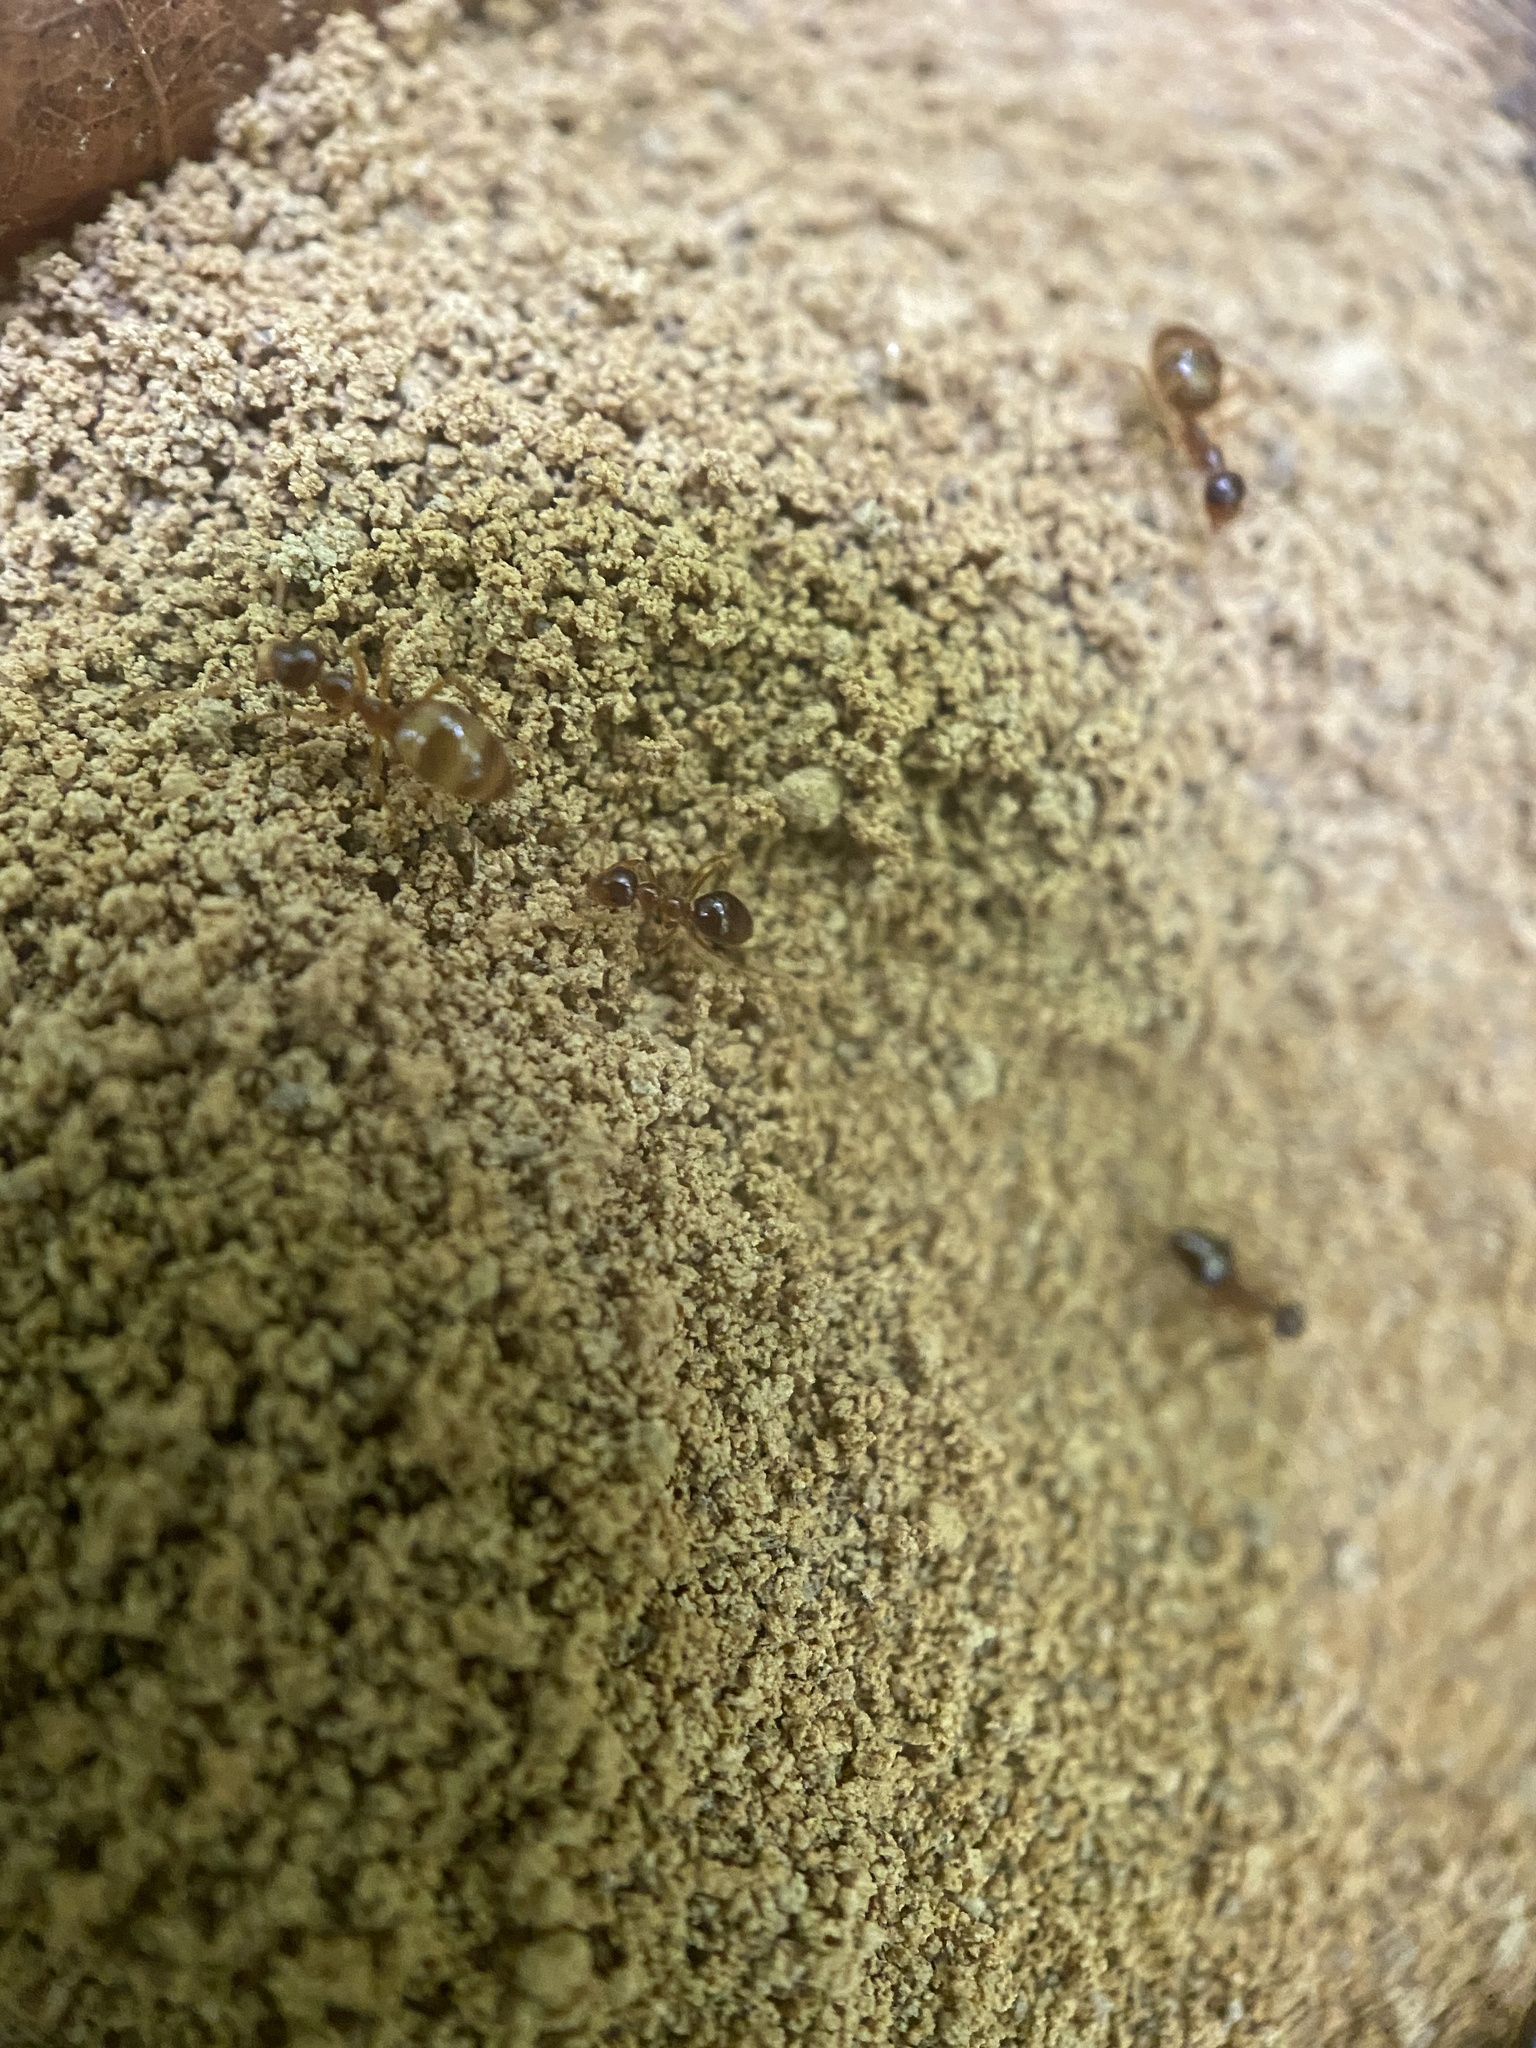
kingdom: Animalia
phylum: Arthropoda
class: Insecta
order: Hymenoptera
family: Formicidae
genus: Prenolepis
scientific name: Prenolepis imparis
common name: Small honey ant
